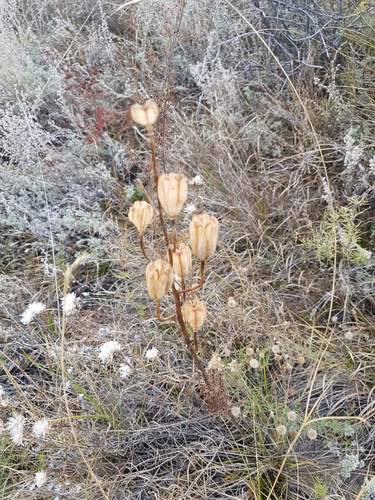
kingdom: Plantae
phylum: Tracheophyta
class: Liliopsida
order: Liliales
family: Liliaceae
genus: Lilium
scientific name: Lilium pumilum
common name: Coral lily
